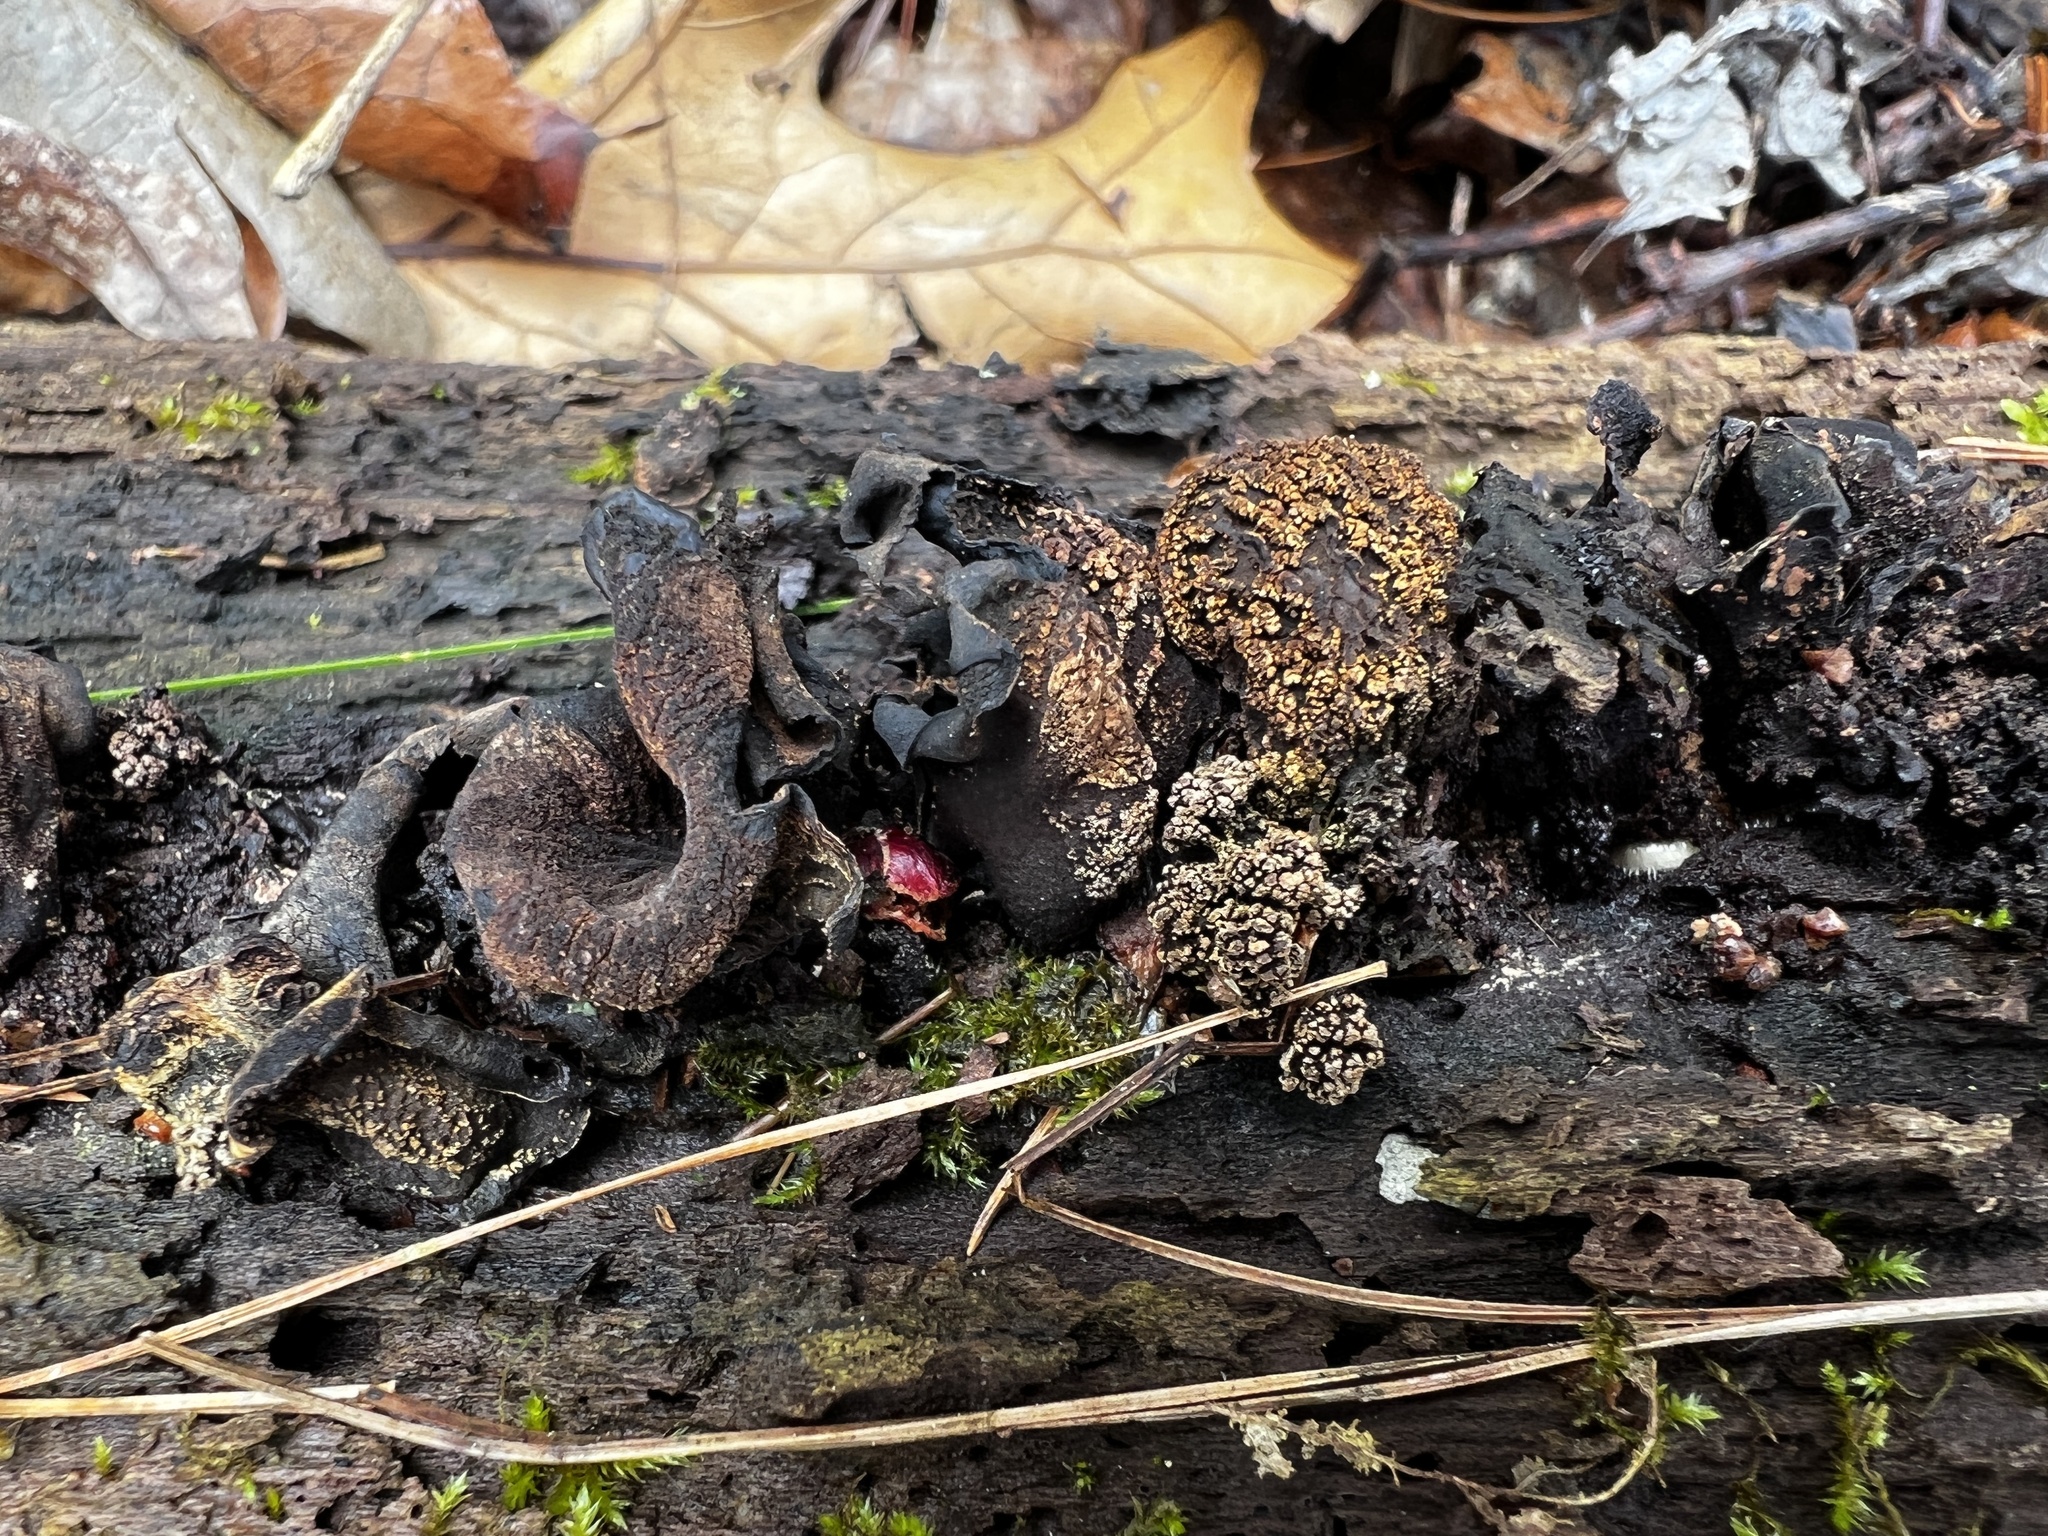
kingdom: Fungi
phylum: Ascomycota
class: Leotiomycetes
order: Helotiales
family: Cordieritidaceae
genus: Diplocarpa
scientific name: Diplocarpa irregularis
